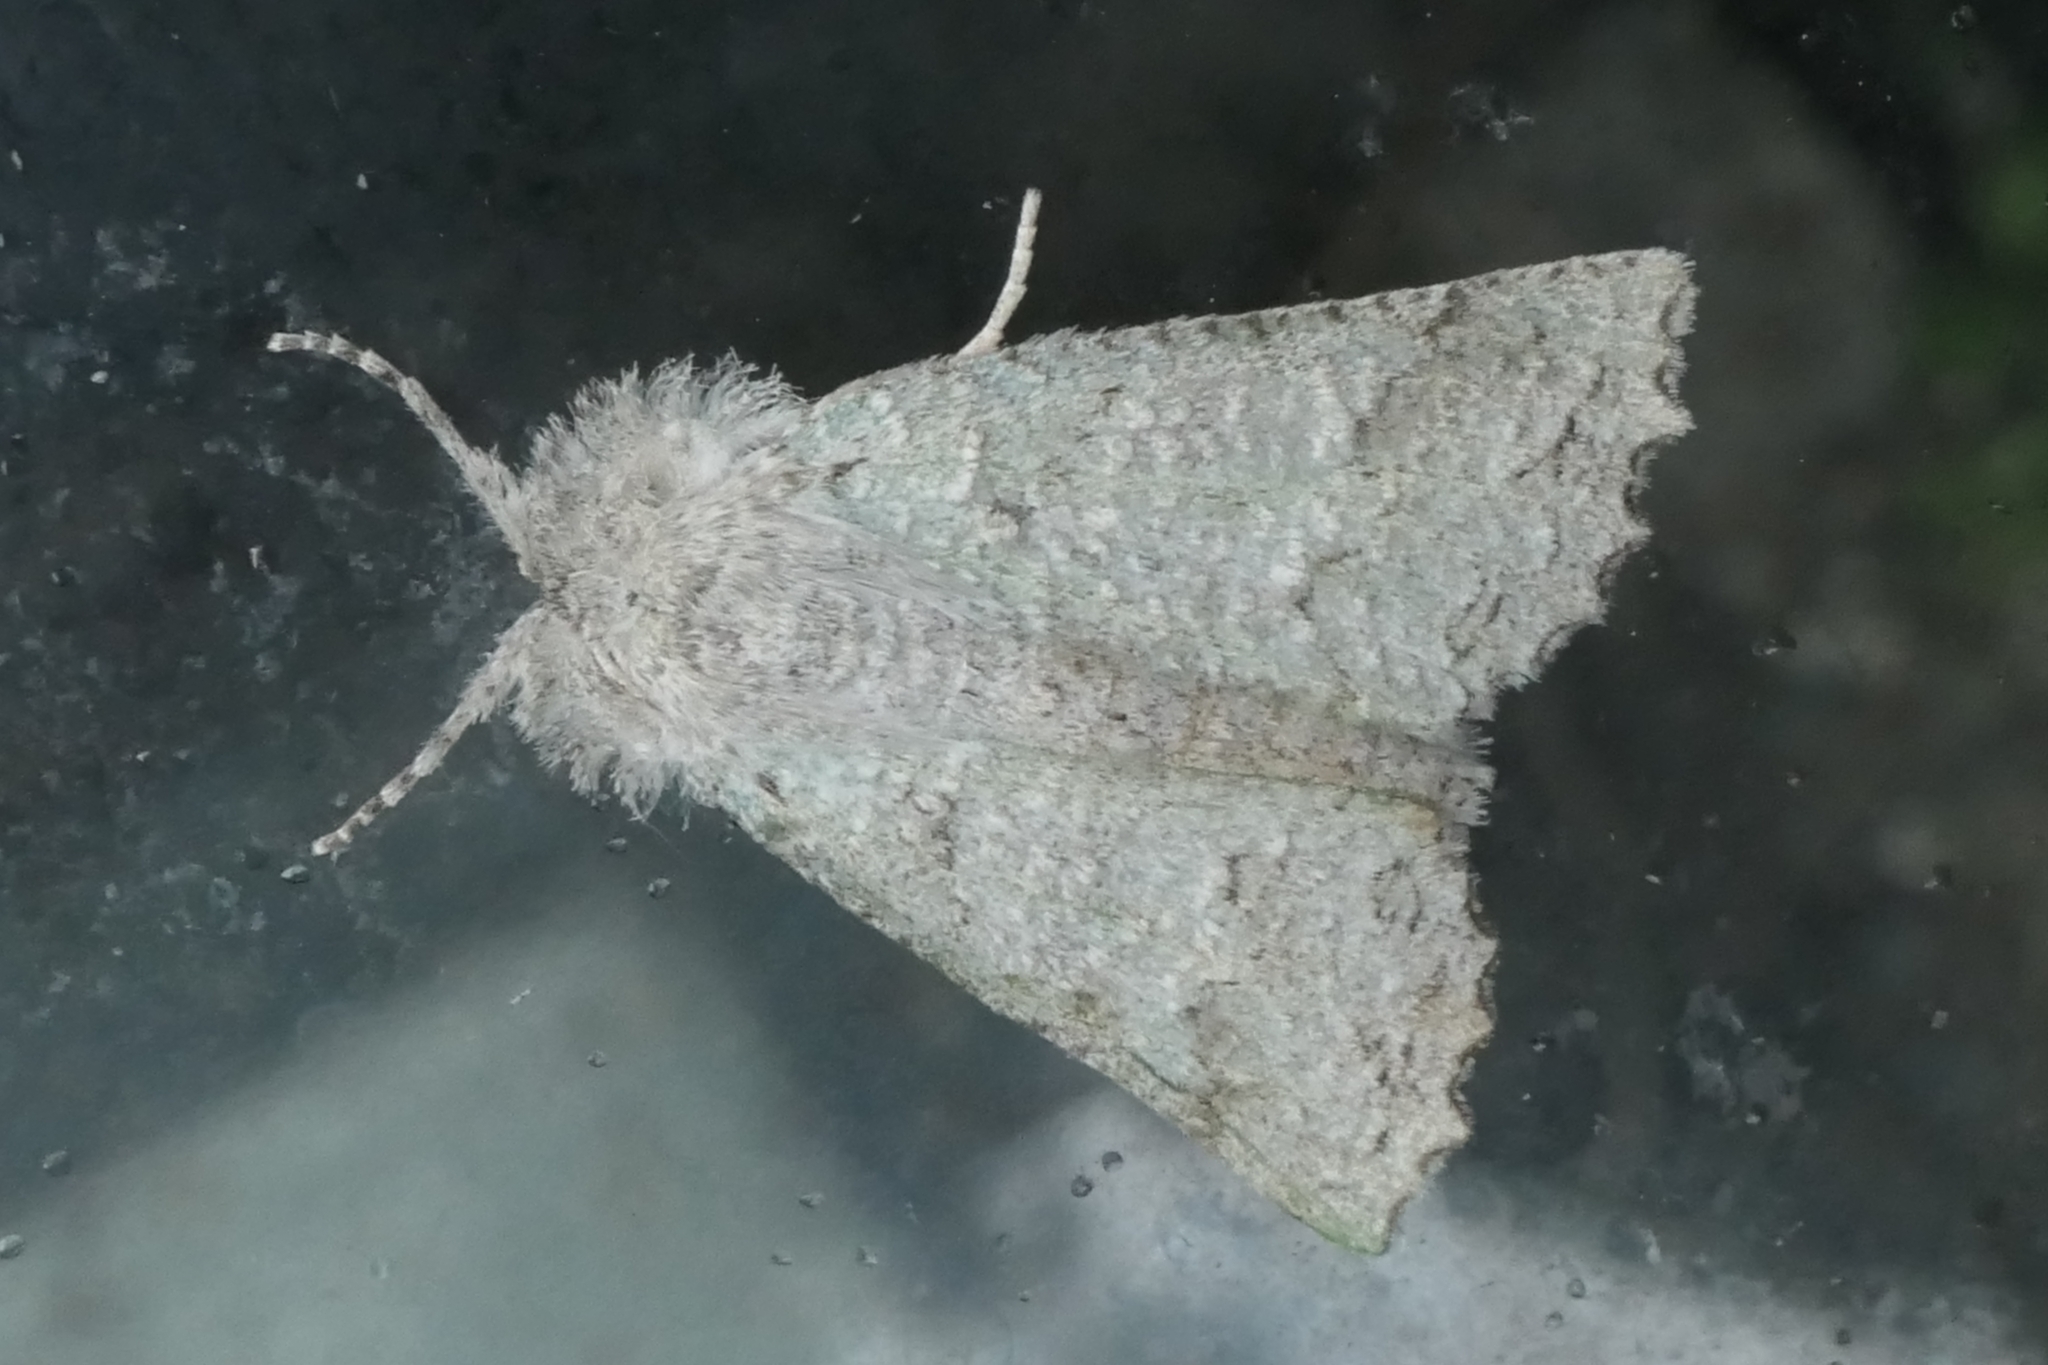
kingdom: Animalia
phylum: Arthropoda
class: Insecta
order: Lepidoptera
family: Geometridae
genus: Declana
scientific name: Declana niveata
